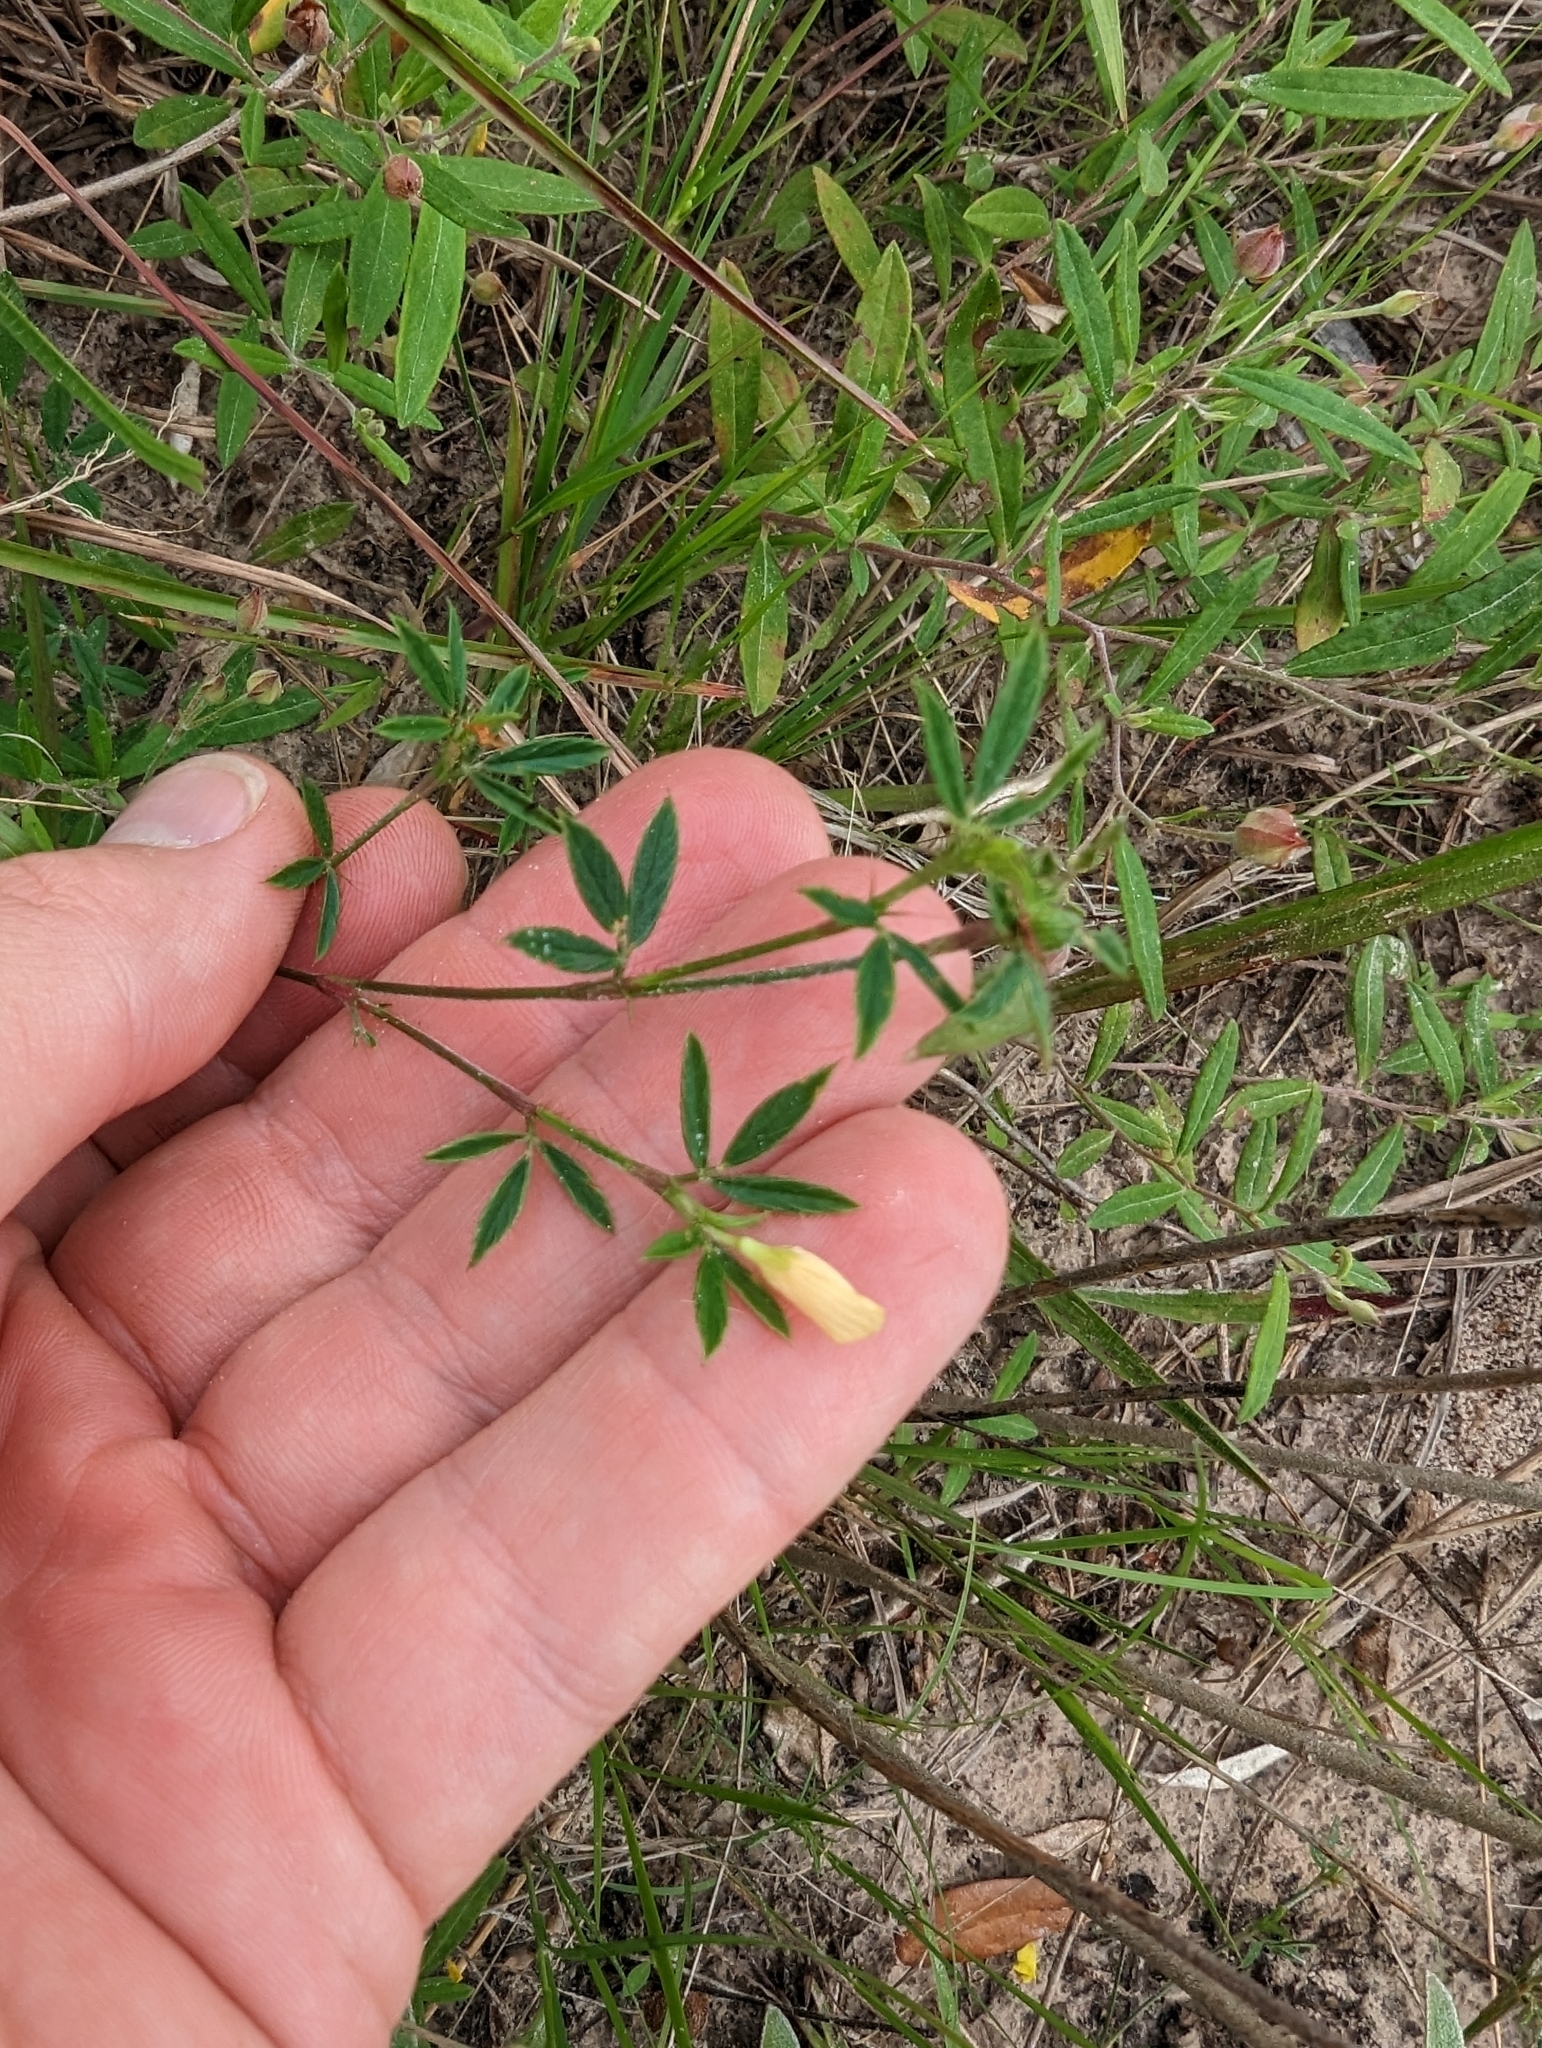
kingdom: Plantae
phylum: Tracheophyta
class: Magnoliopsida
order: Fabales
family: Fabaceae
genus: Stylosanthes
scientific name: Stylosanthes biflora
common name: Two-flower pencil-flower
